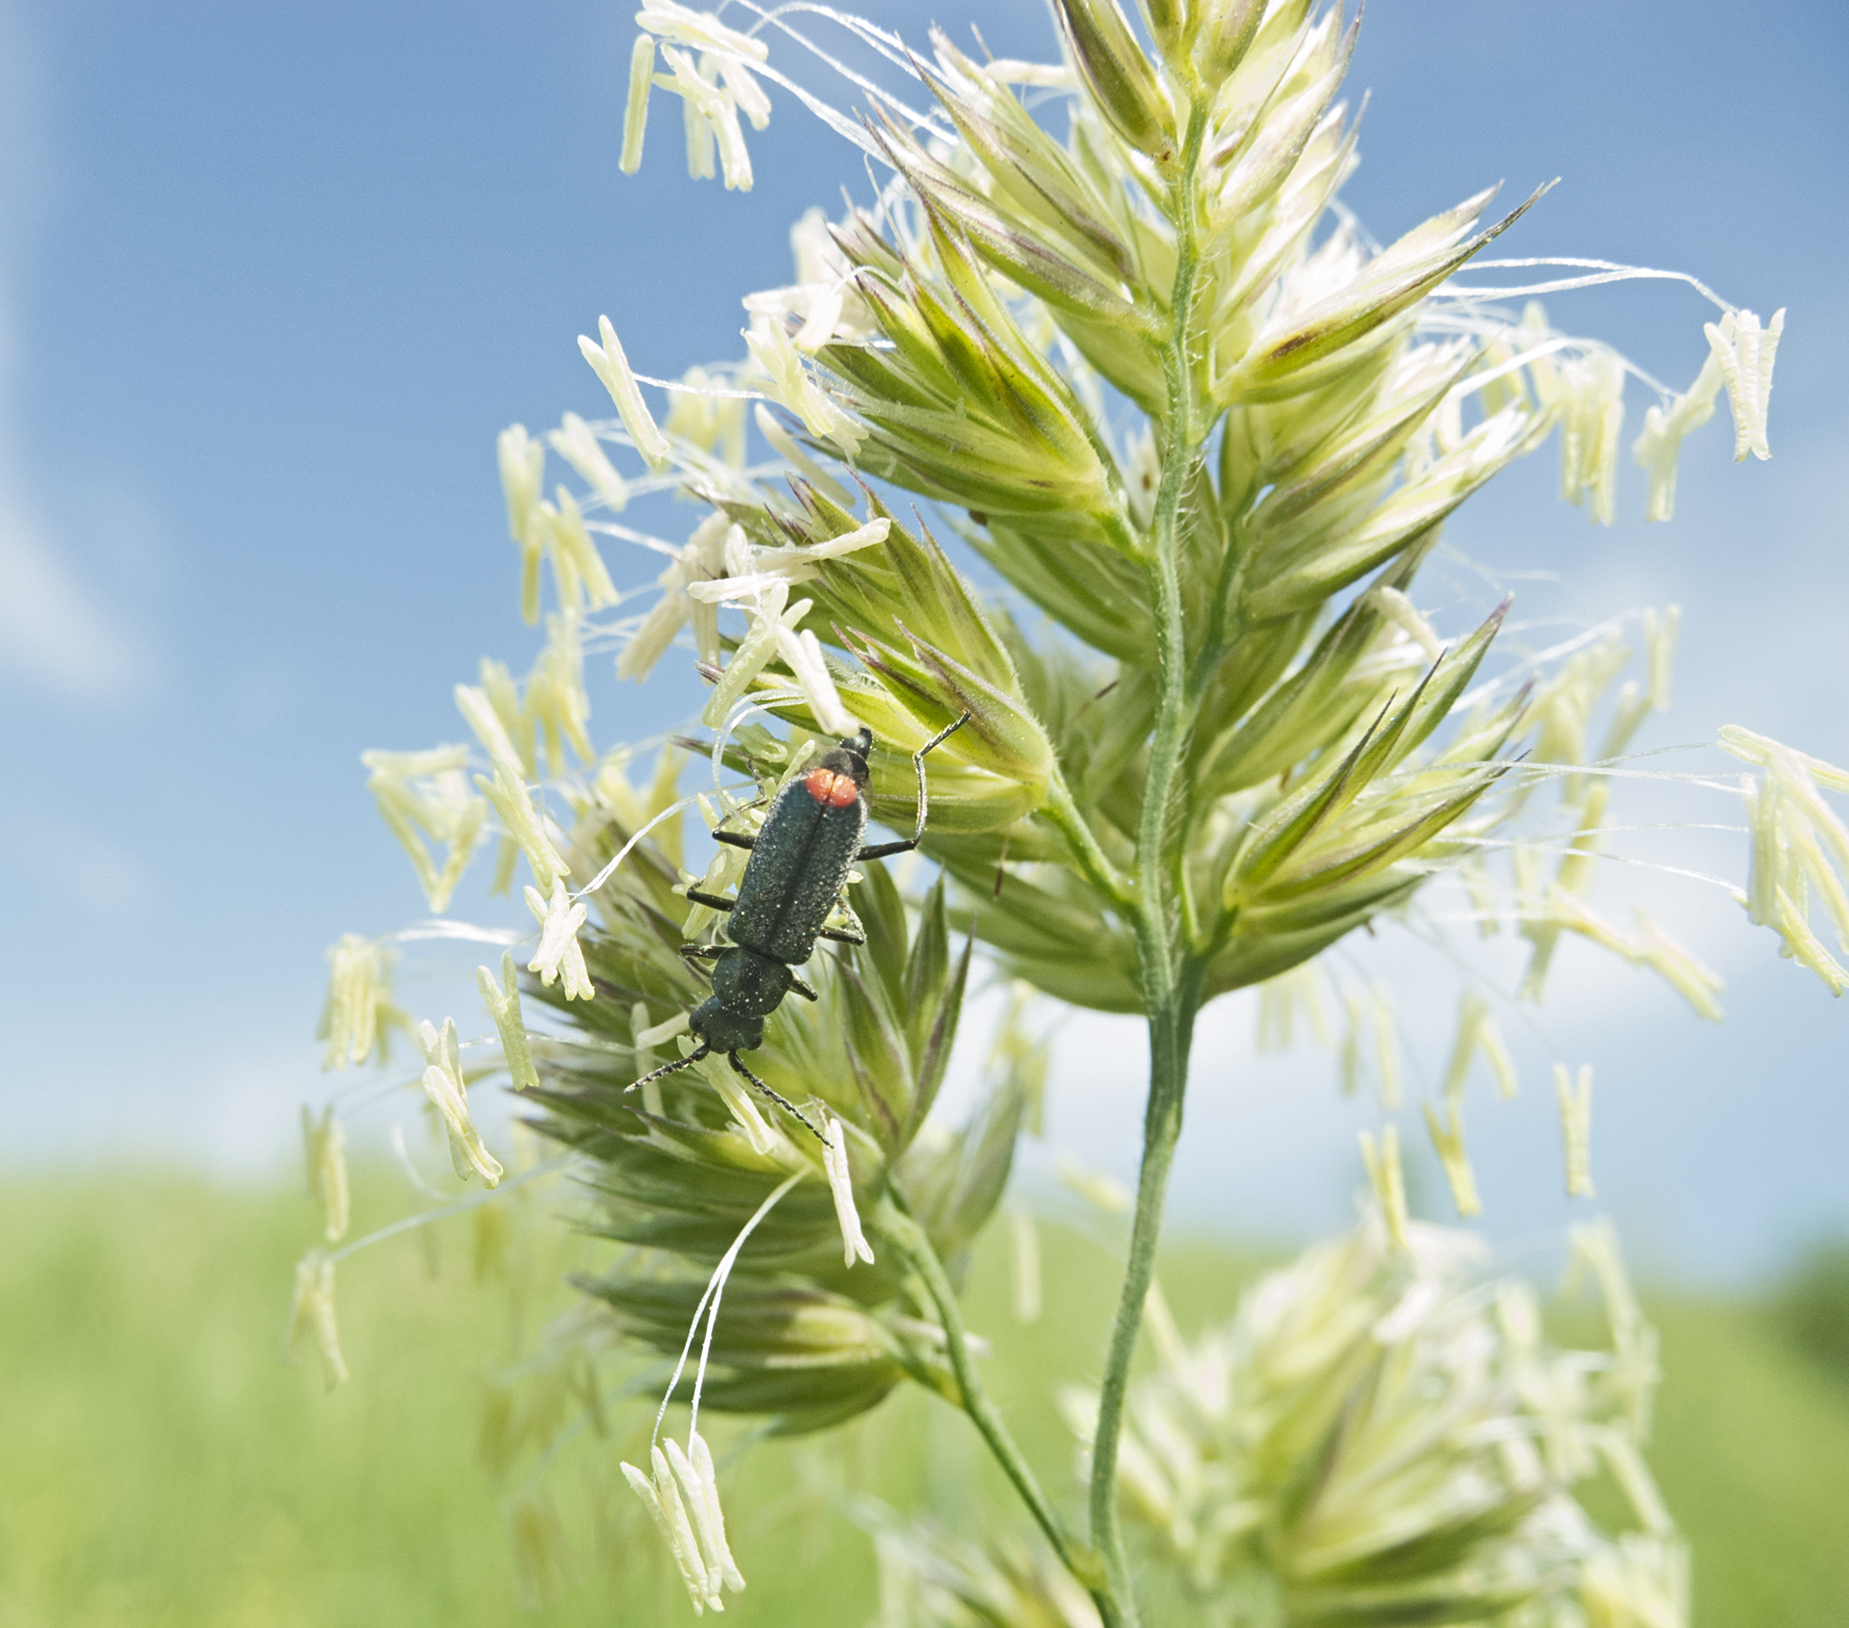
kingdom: Animalia
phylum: Arthropoda
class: Insecta
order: Coleoptera
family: Malachiidae
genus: Cordylepherus
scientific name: Cordylepherus viridis
